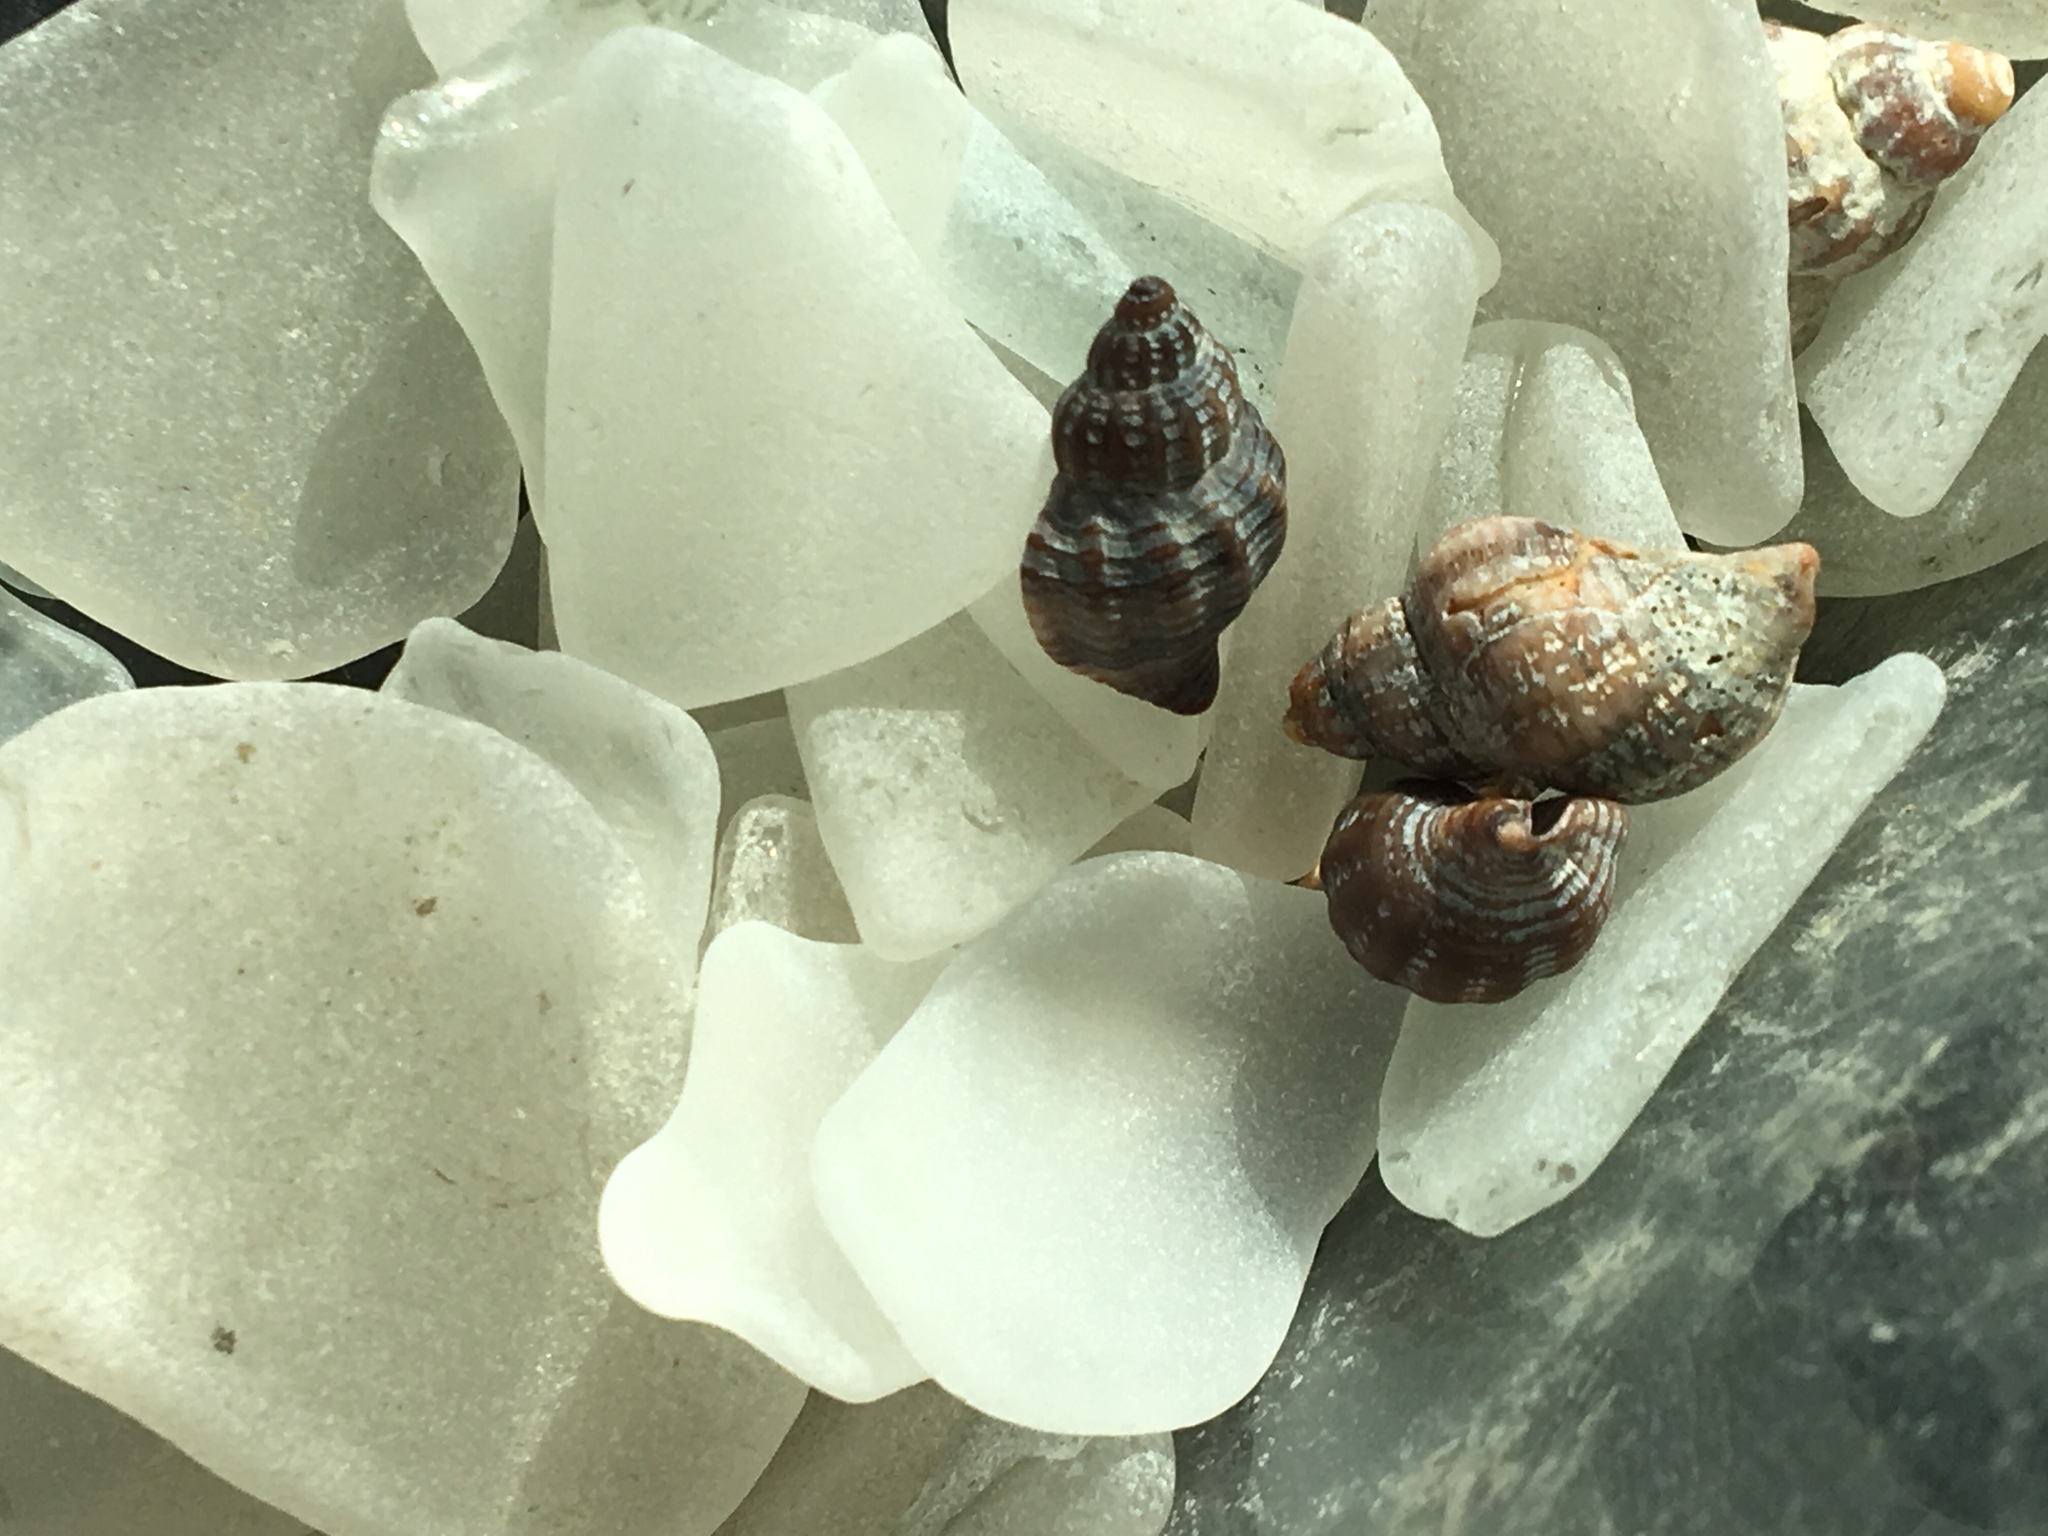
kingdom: Animalia
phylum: Mollusca
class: Gastropoda
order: Neogastropoda
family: Muricidae
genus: Urosalpinx
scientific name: Urosalpinx cinerea
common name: American sting winkle
